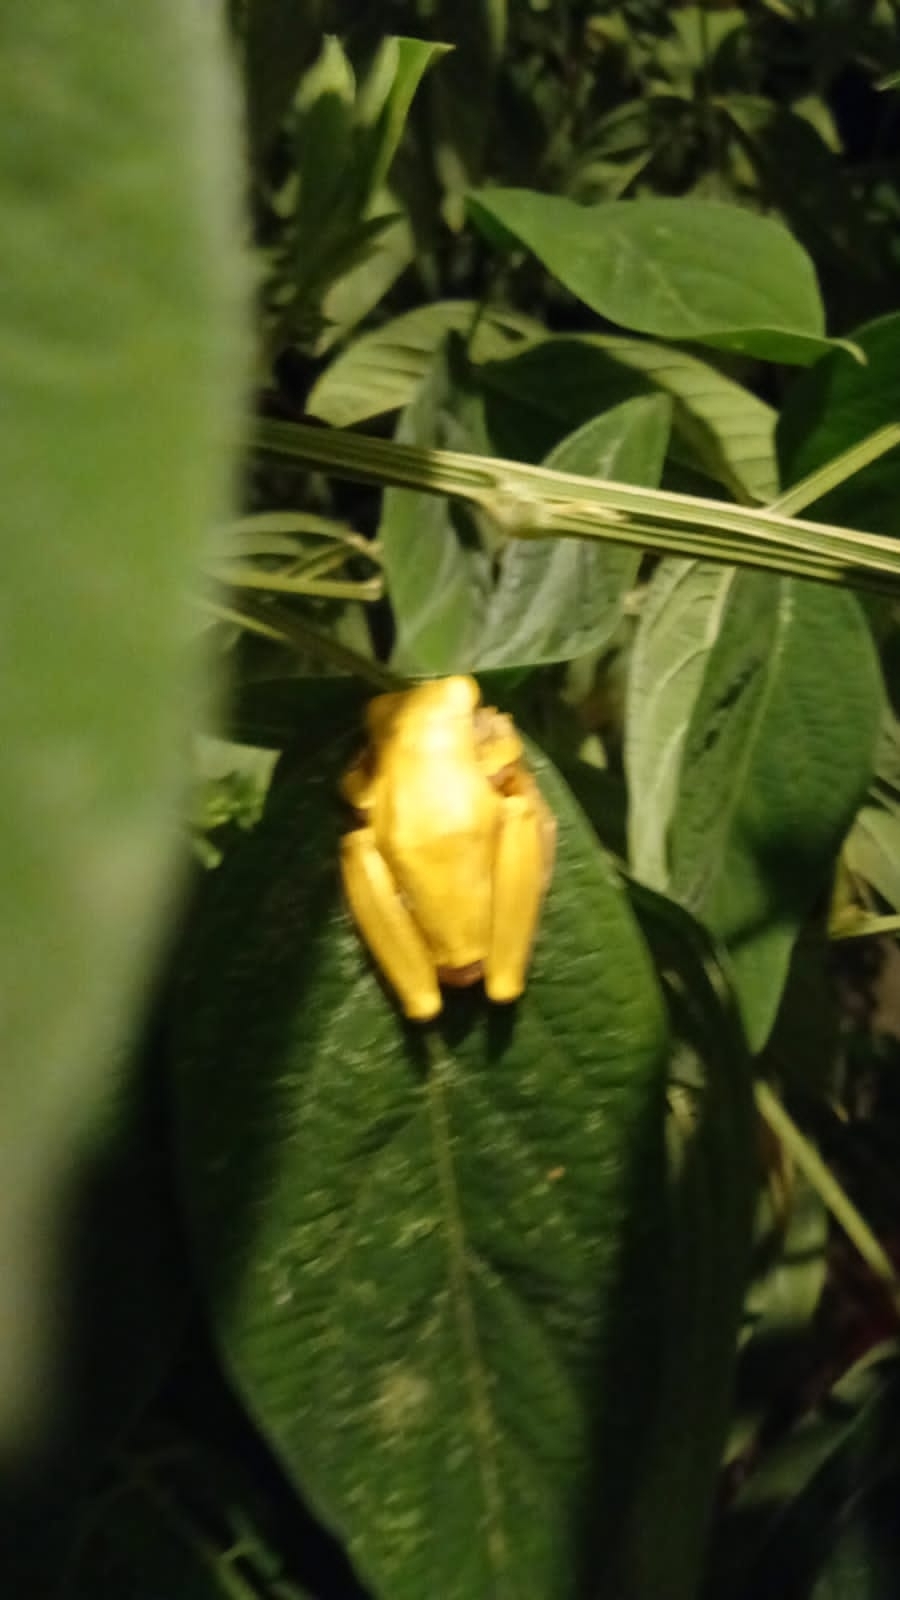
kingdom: Animalia
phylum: Chordata
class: Amphibia
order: Anura
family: Hylidae
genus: Dendropsophus
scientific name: Dendropsophus ebraccatus
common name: Hourglass treefrog
